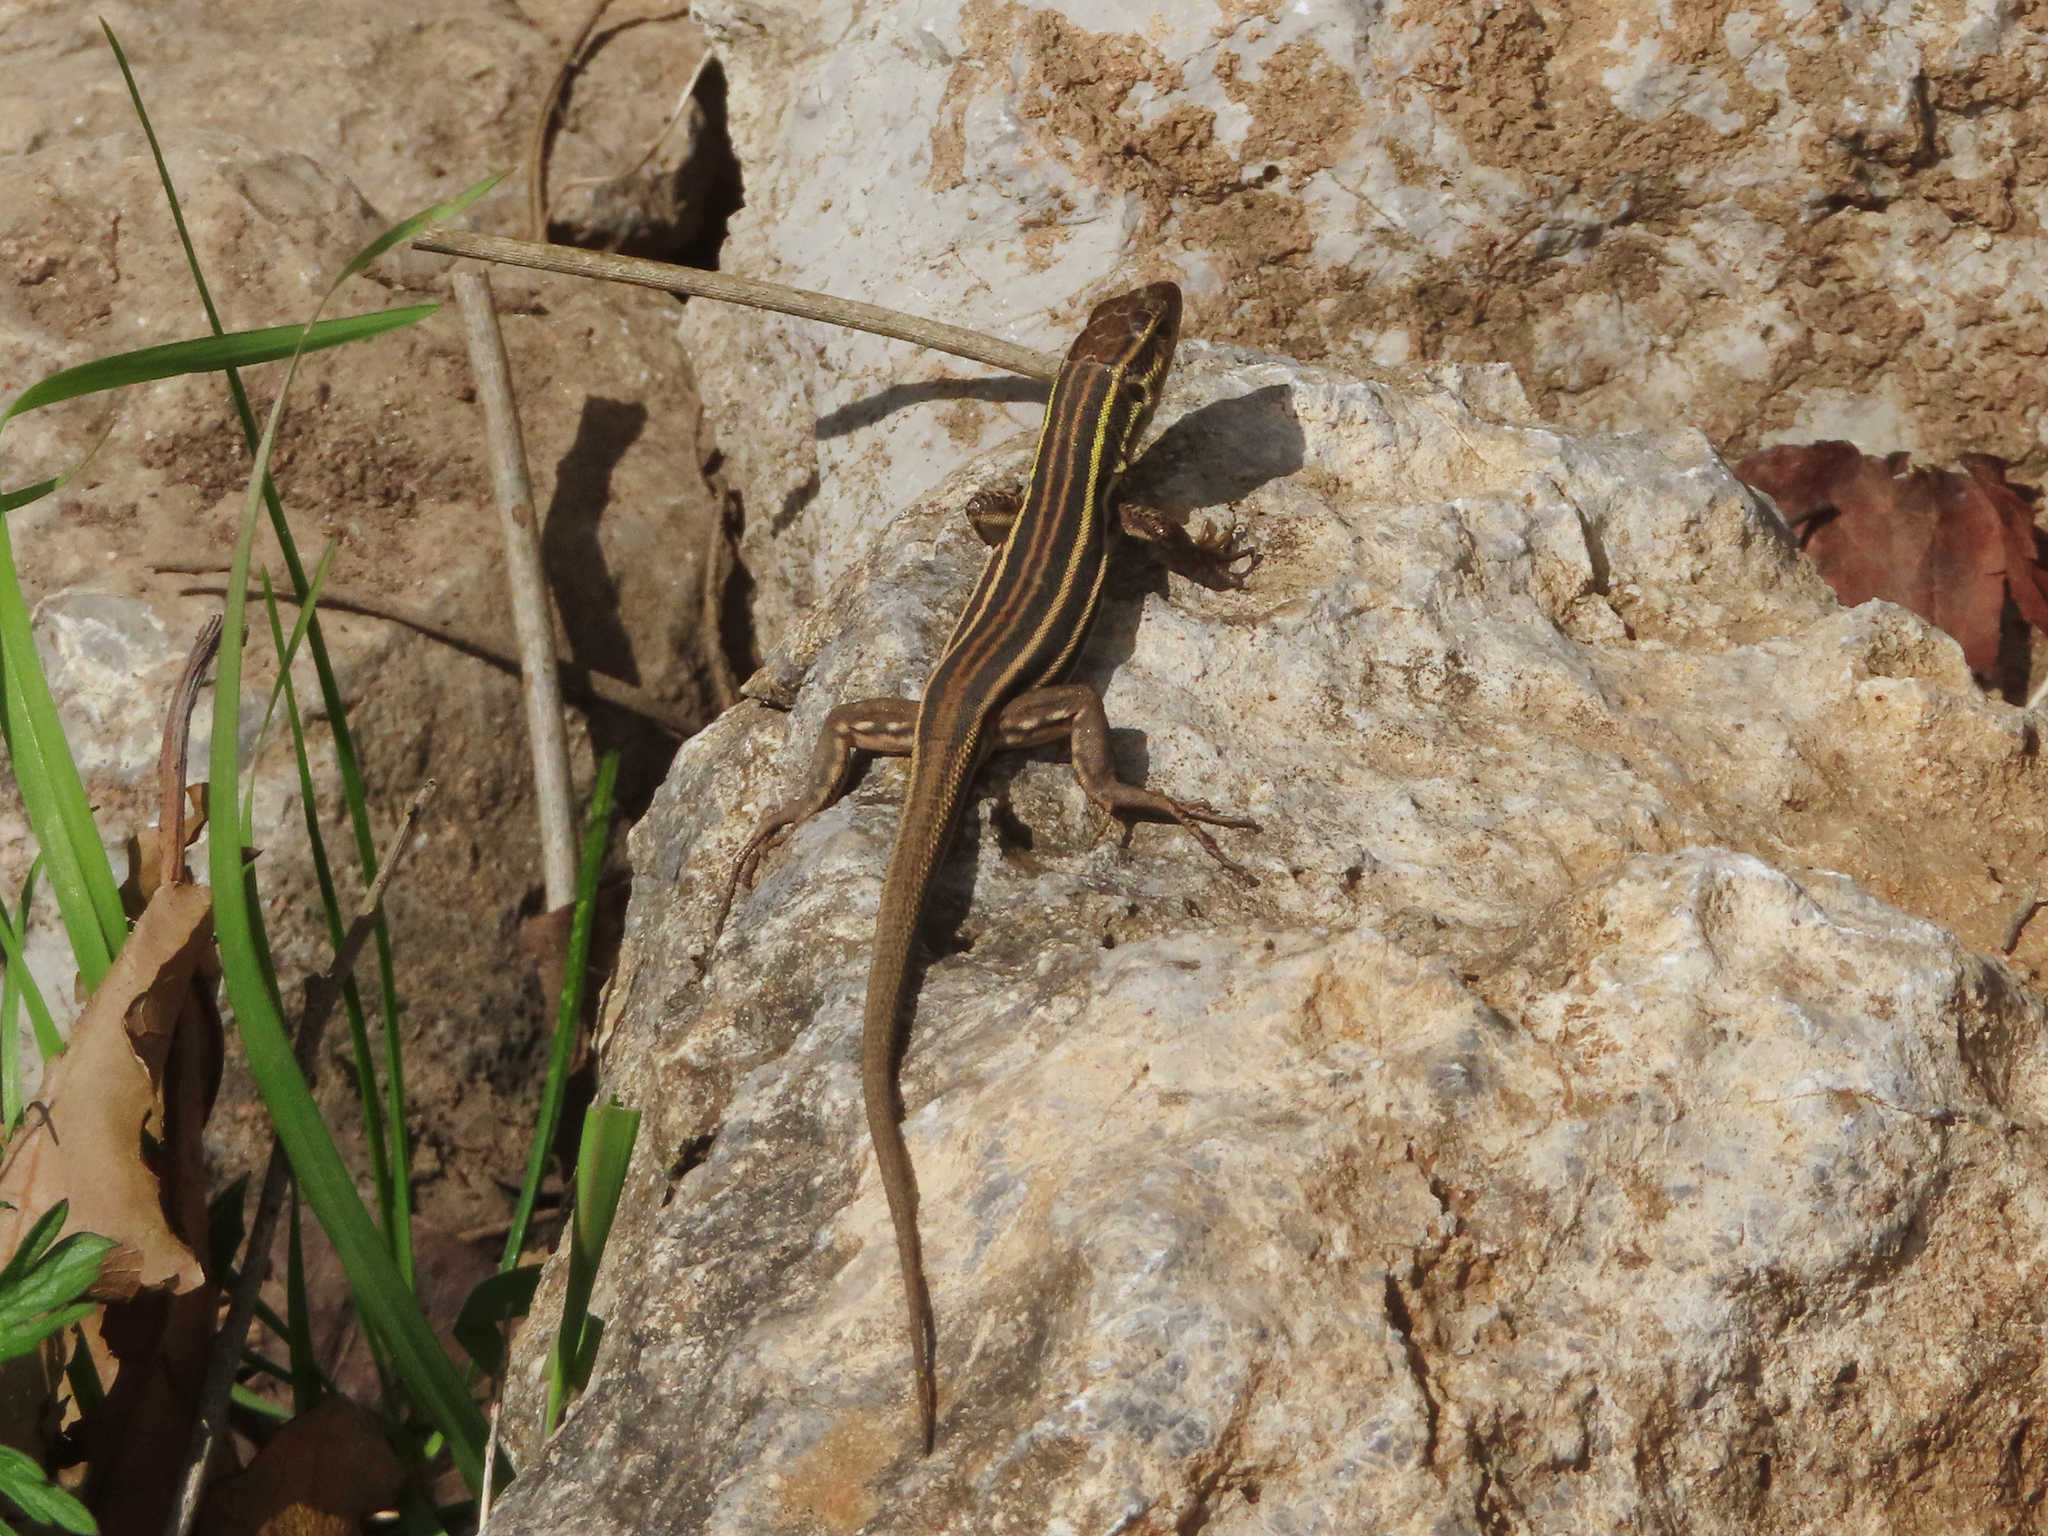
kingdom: Animalia
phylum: Chordata
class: Squamata
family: Lacertidae
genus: Podarcis
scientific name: Podarcis peloponnesiacus
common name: Peloponnese wall lizard
